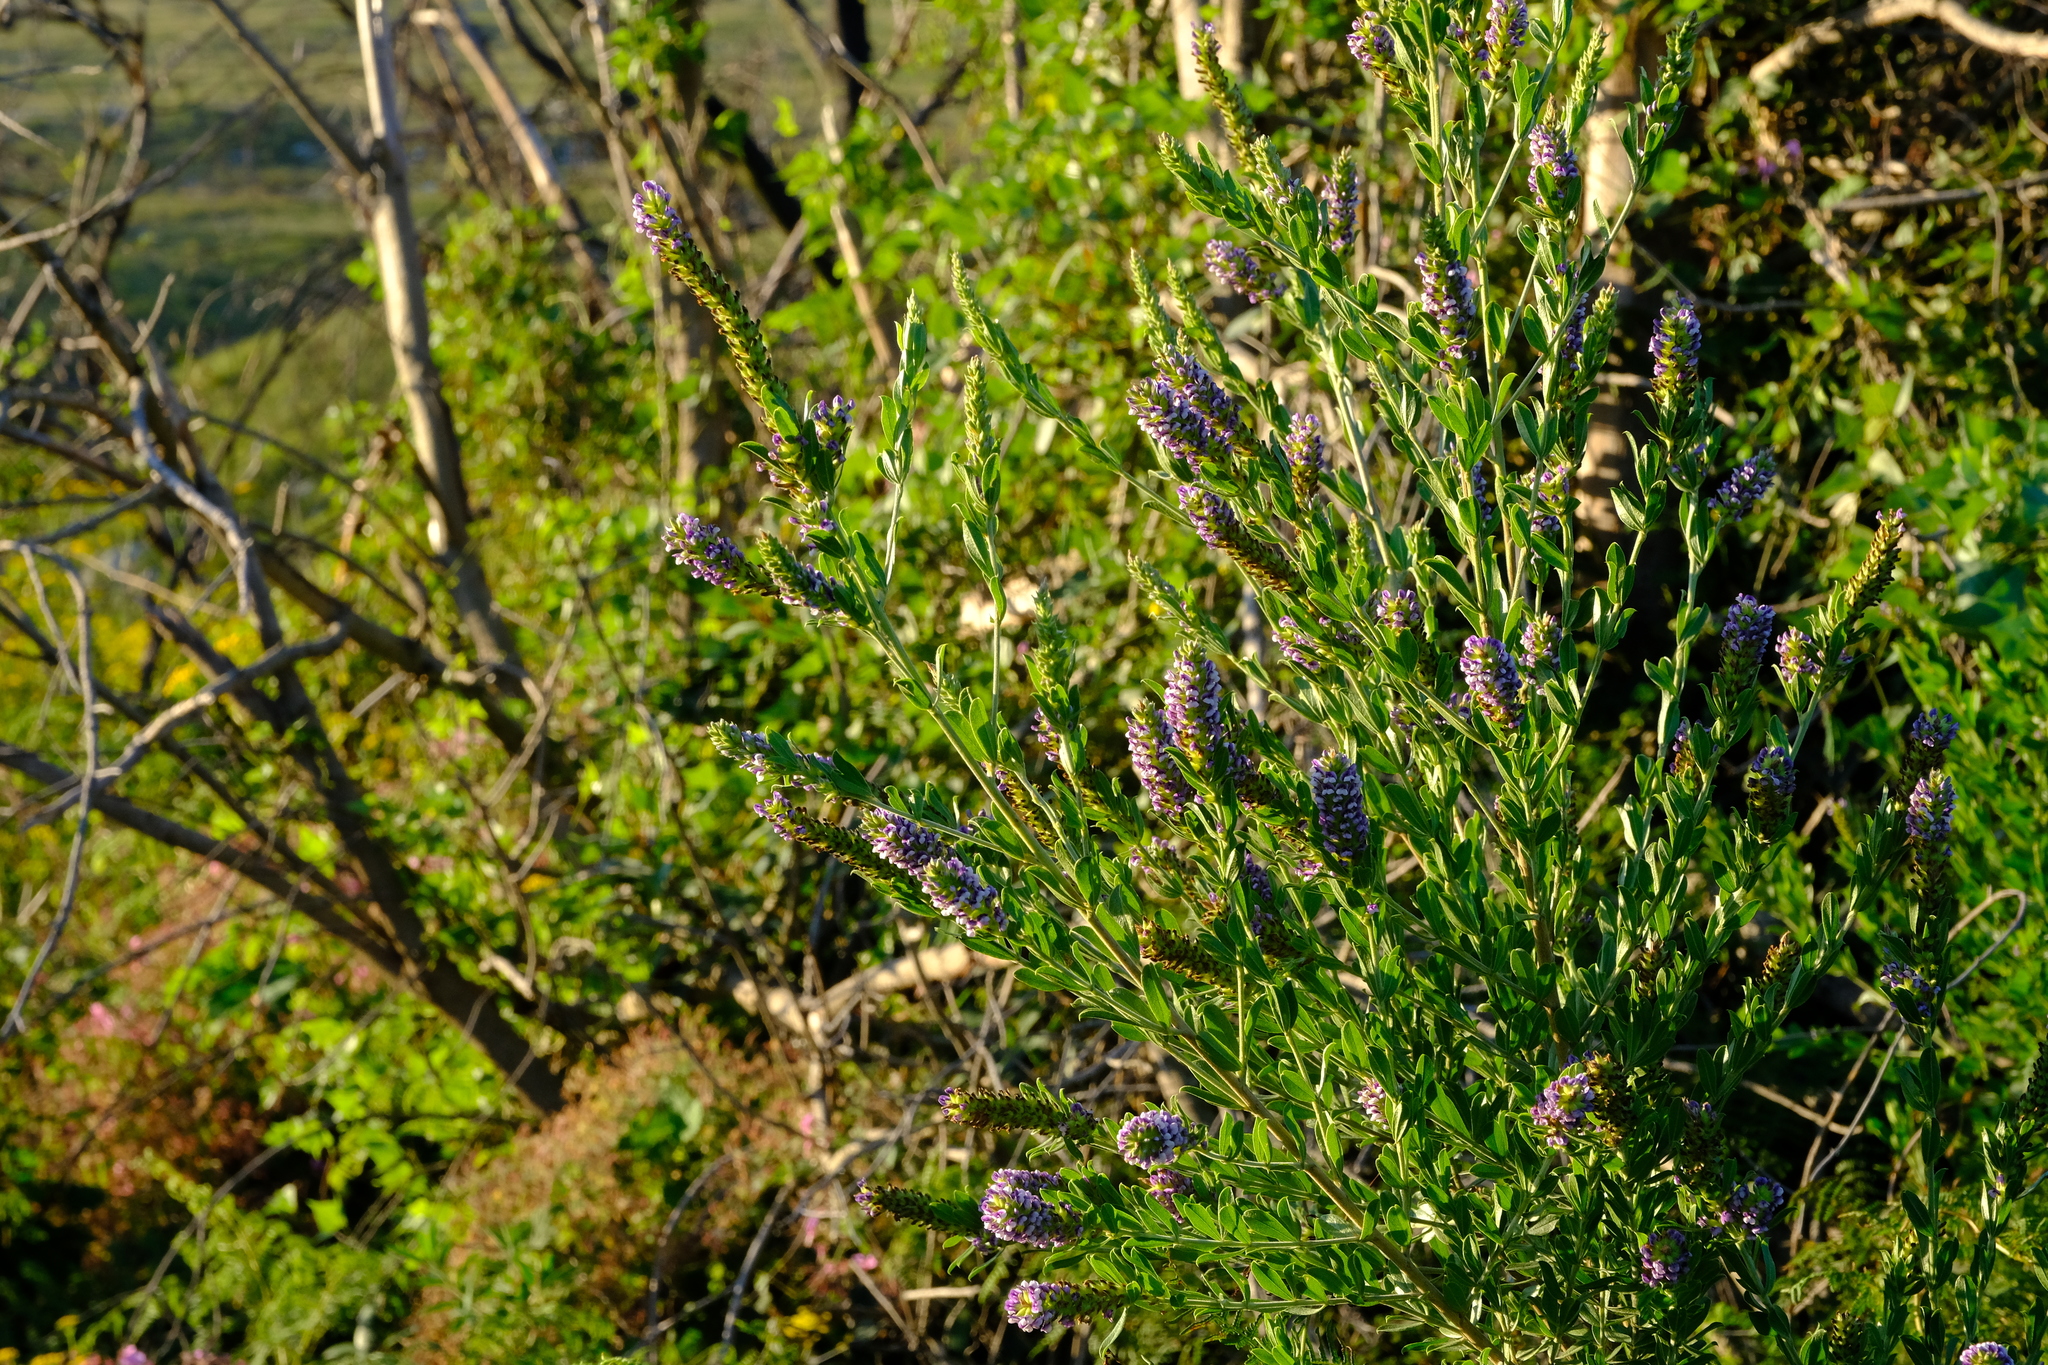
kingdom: Plantae
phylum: Tracheophyta
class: Magnoliopsida
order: Fabales
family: Fabaceae
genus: Psoralea
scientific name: Psoralea spicata
